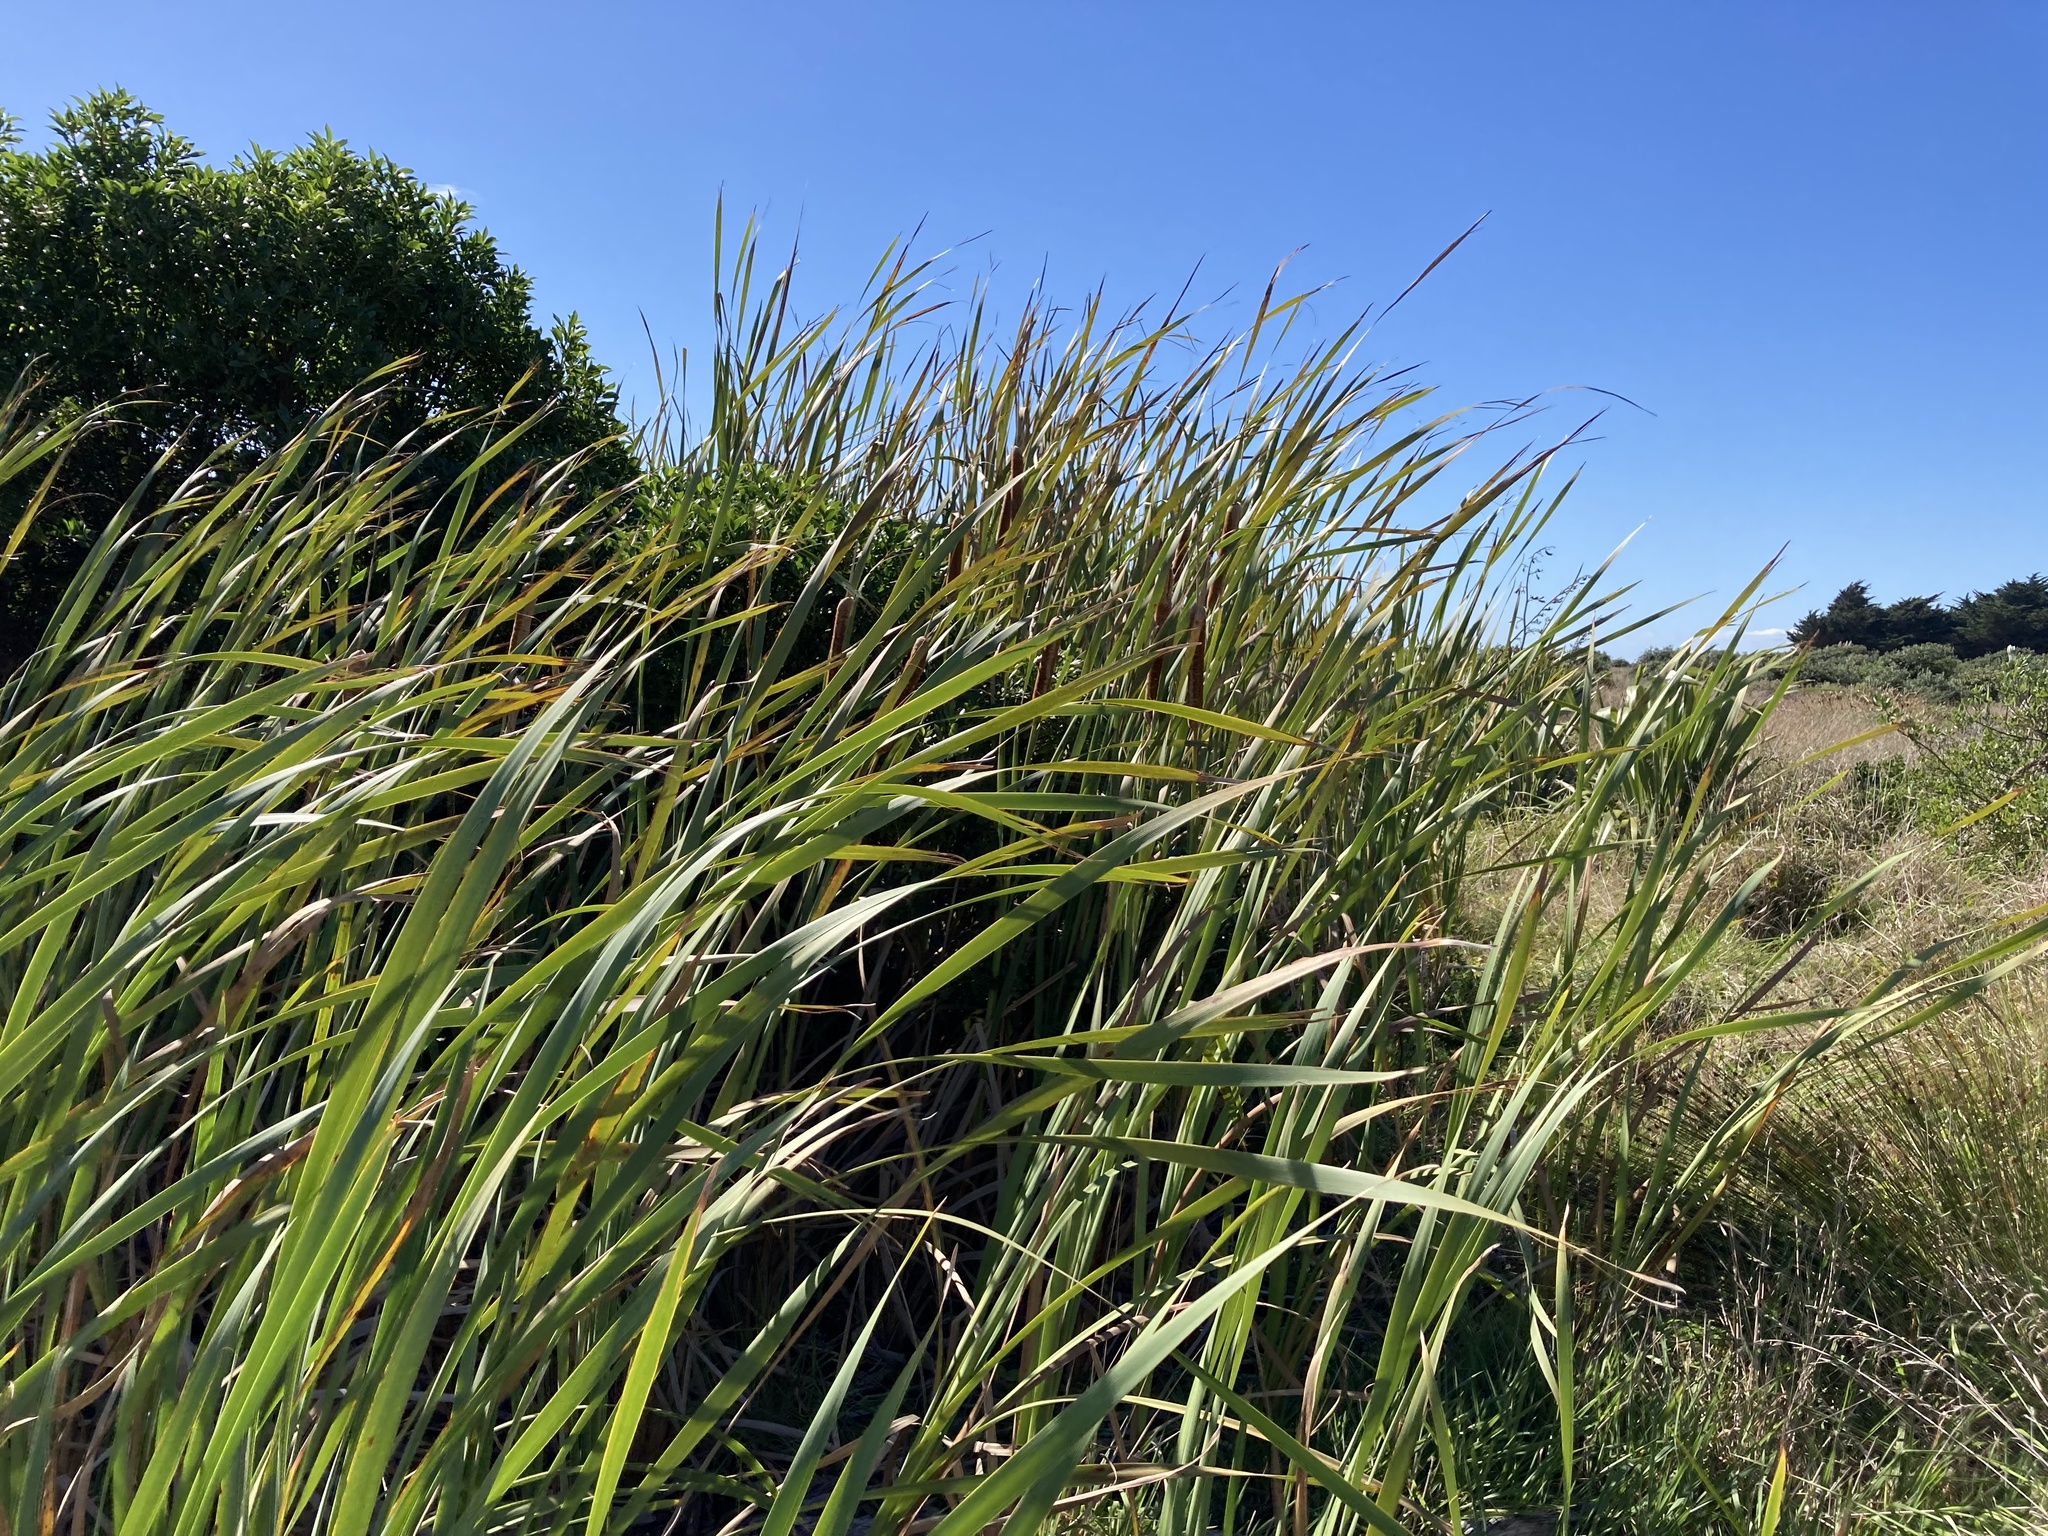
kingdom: Plantae
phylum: Tracheophyta
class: Liliopsida
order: Poales
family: Typhaceae
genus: Typha
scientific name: Typha orientalis
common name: Bullrush
